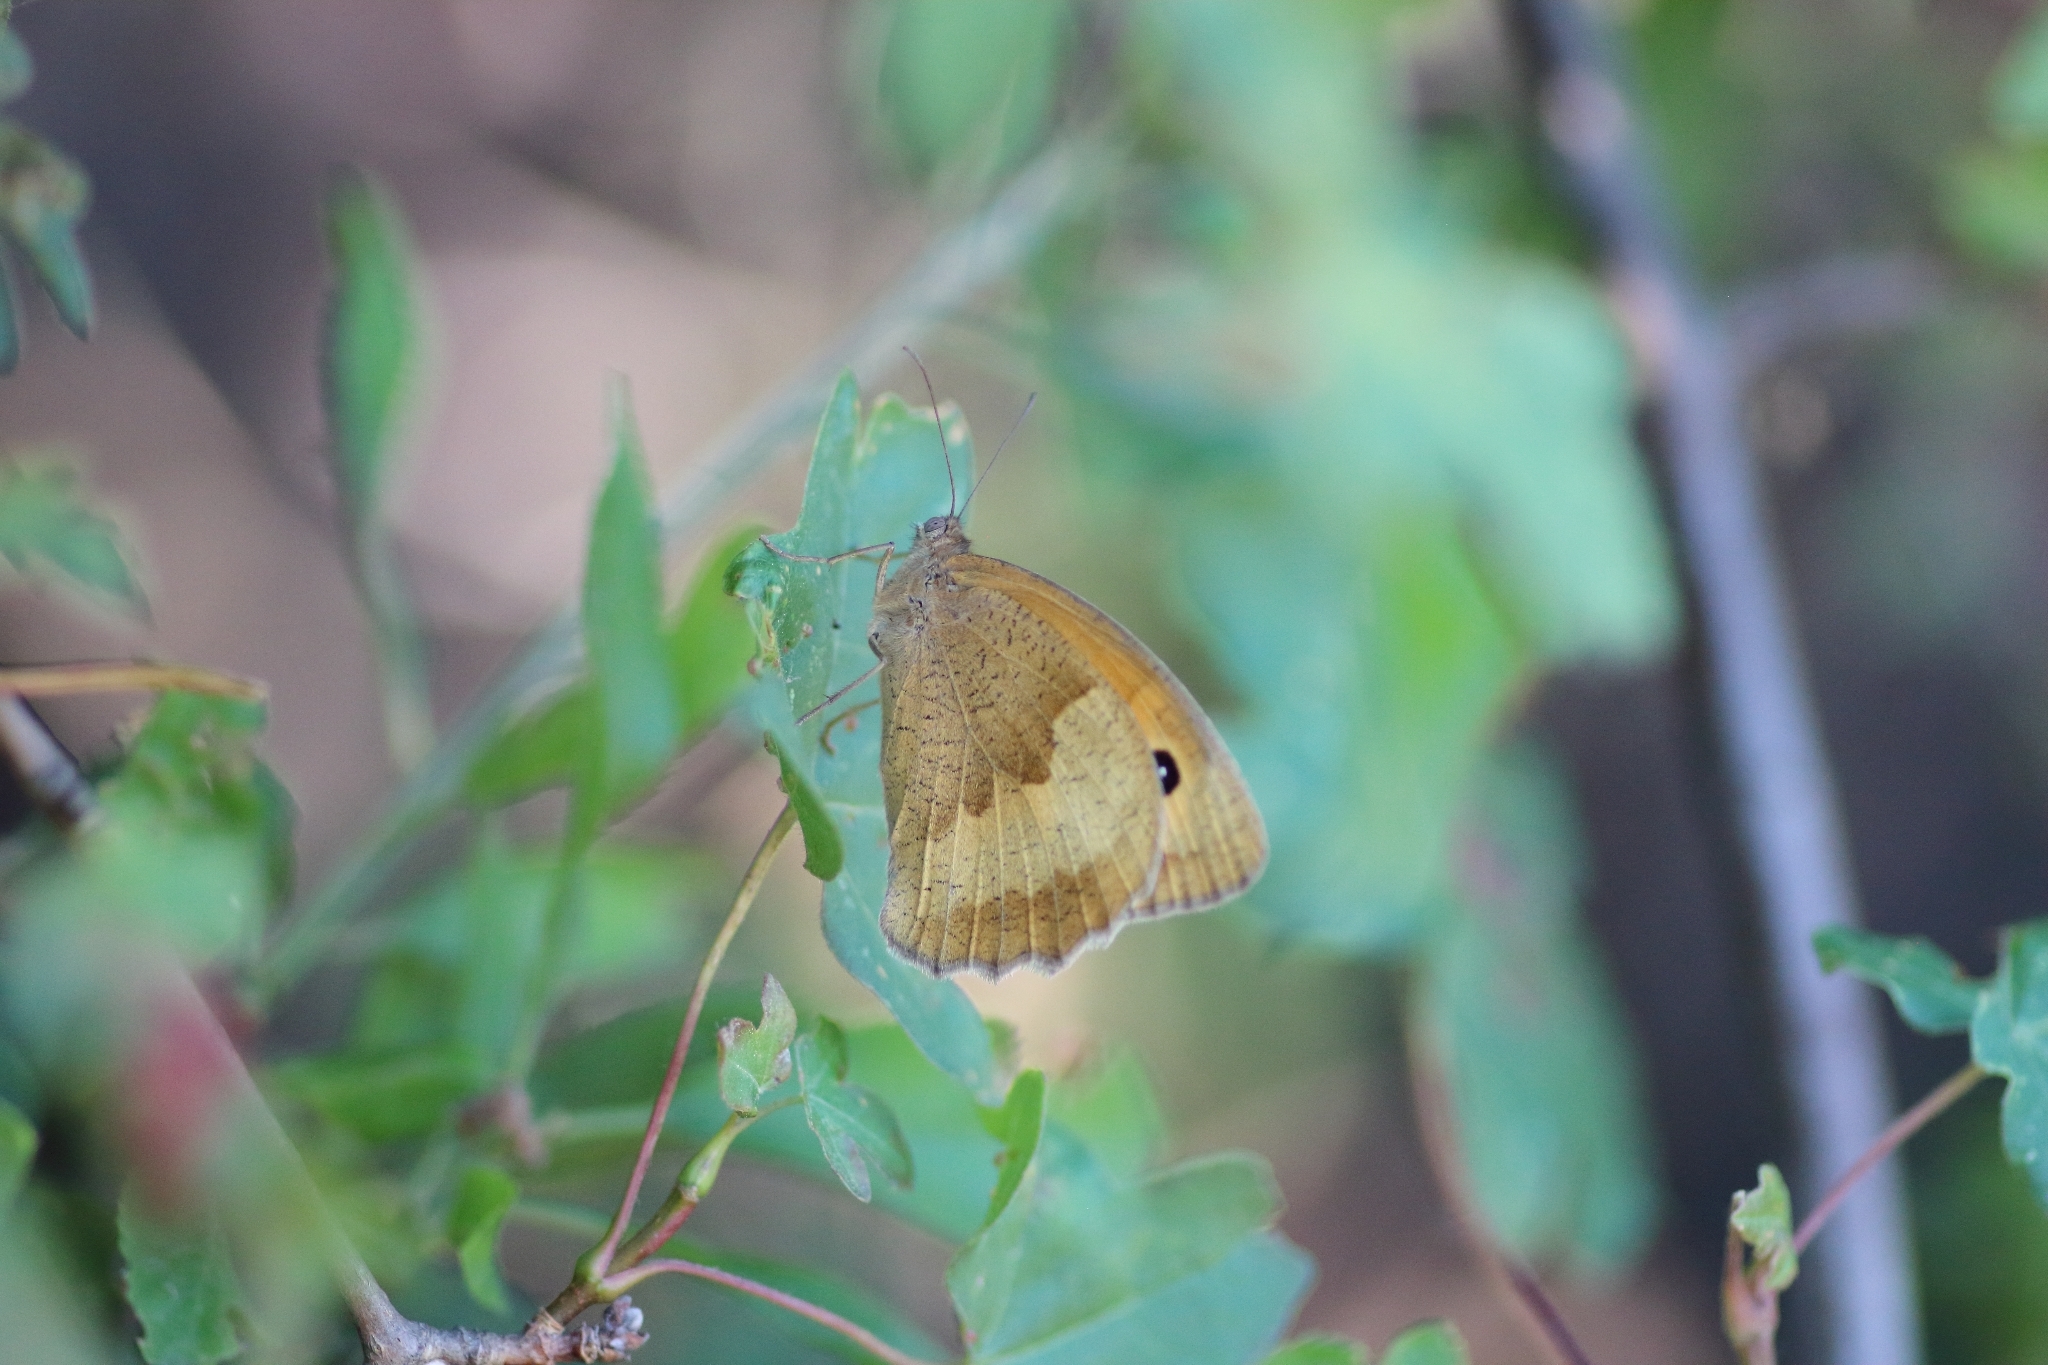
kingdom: Animalia
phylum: Arthropoda
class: Insecta
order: Lepidoptera
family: Nymphalidae
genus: Maniola
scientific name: Maniola jurtina
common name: Meadow brown
